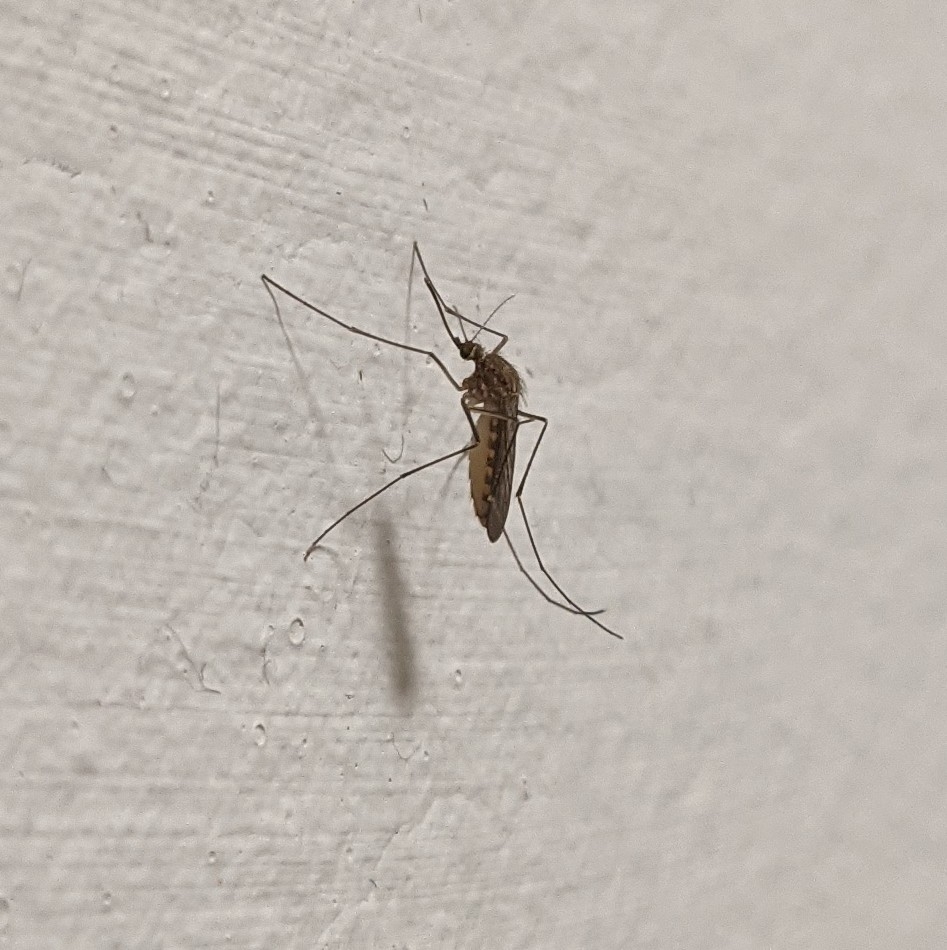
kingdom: Animalia
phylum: Arthropoda
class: Insecta
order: Diptera
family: Culicidae
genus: Culex
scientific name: Culex pipiens
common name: Mosquito
